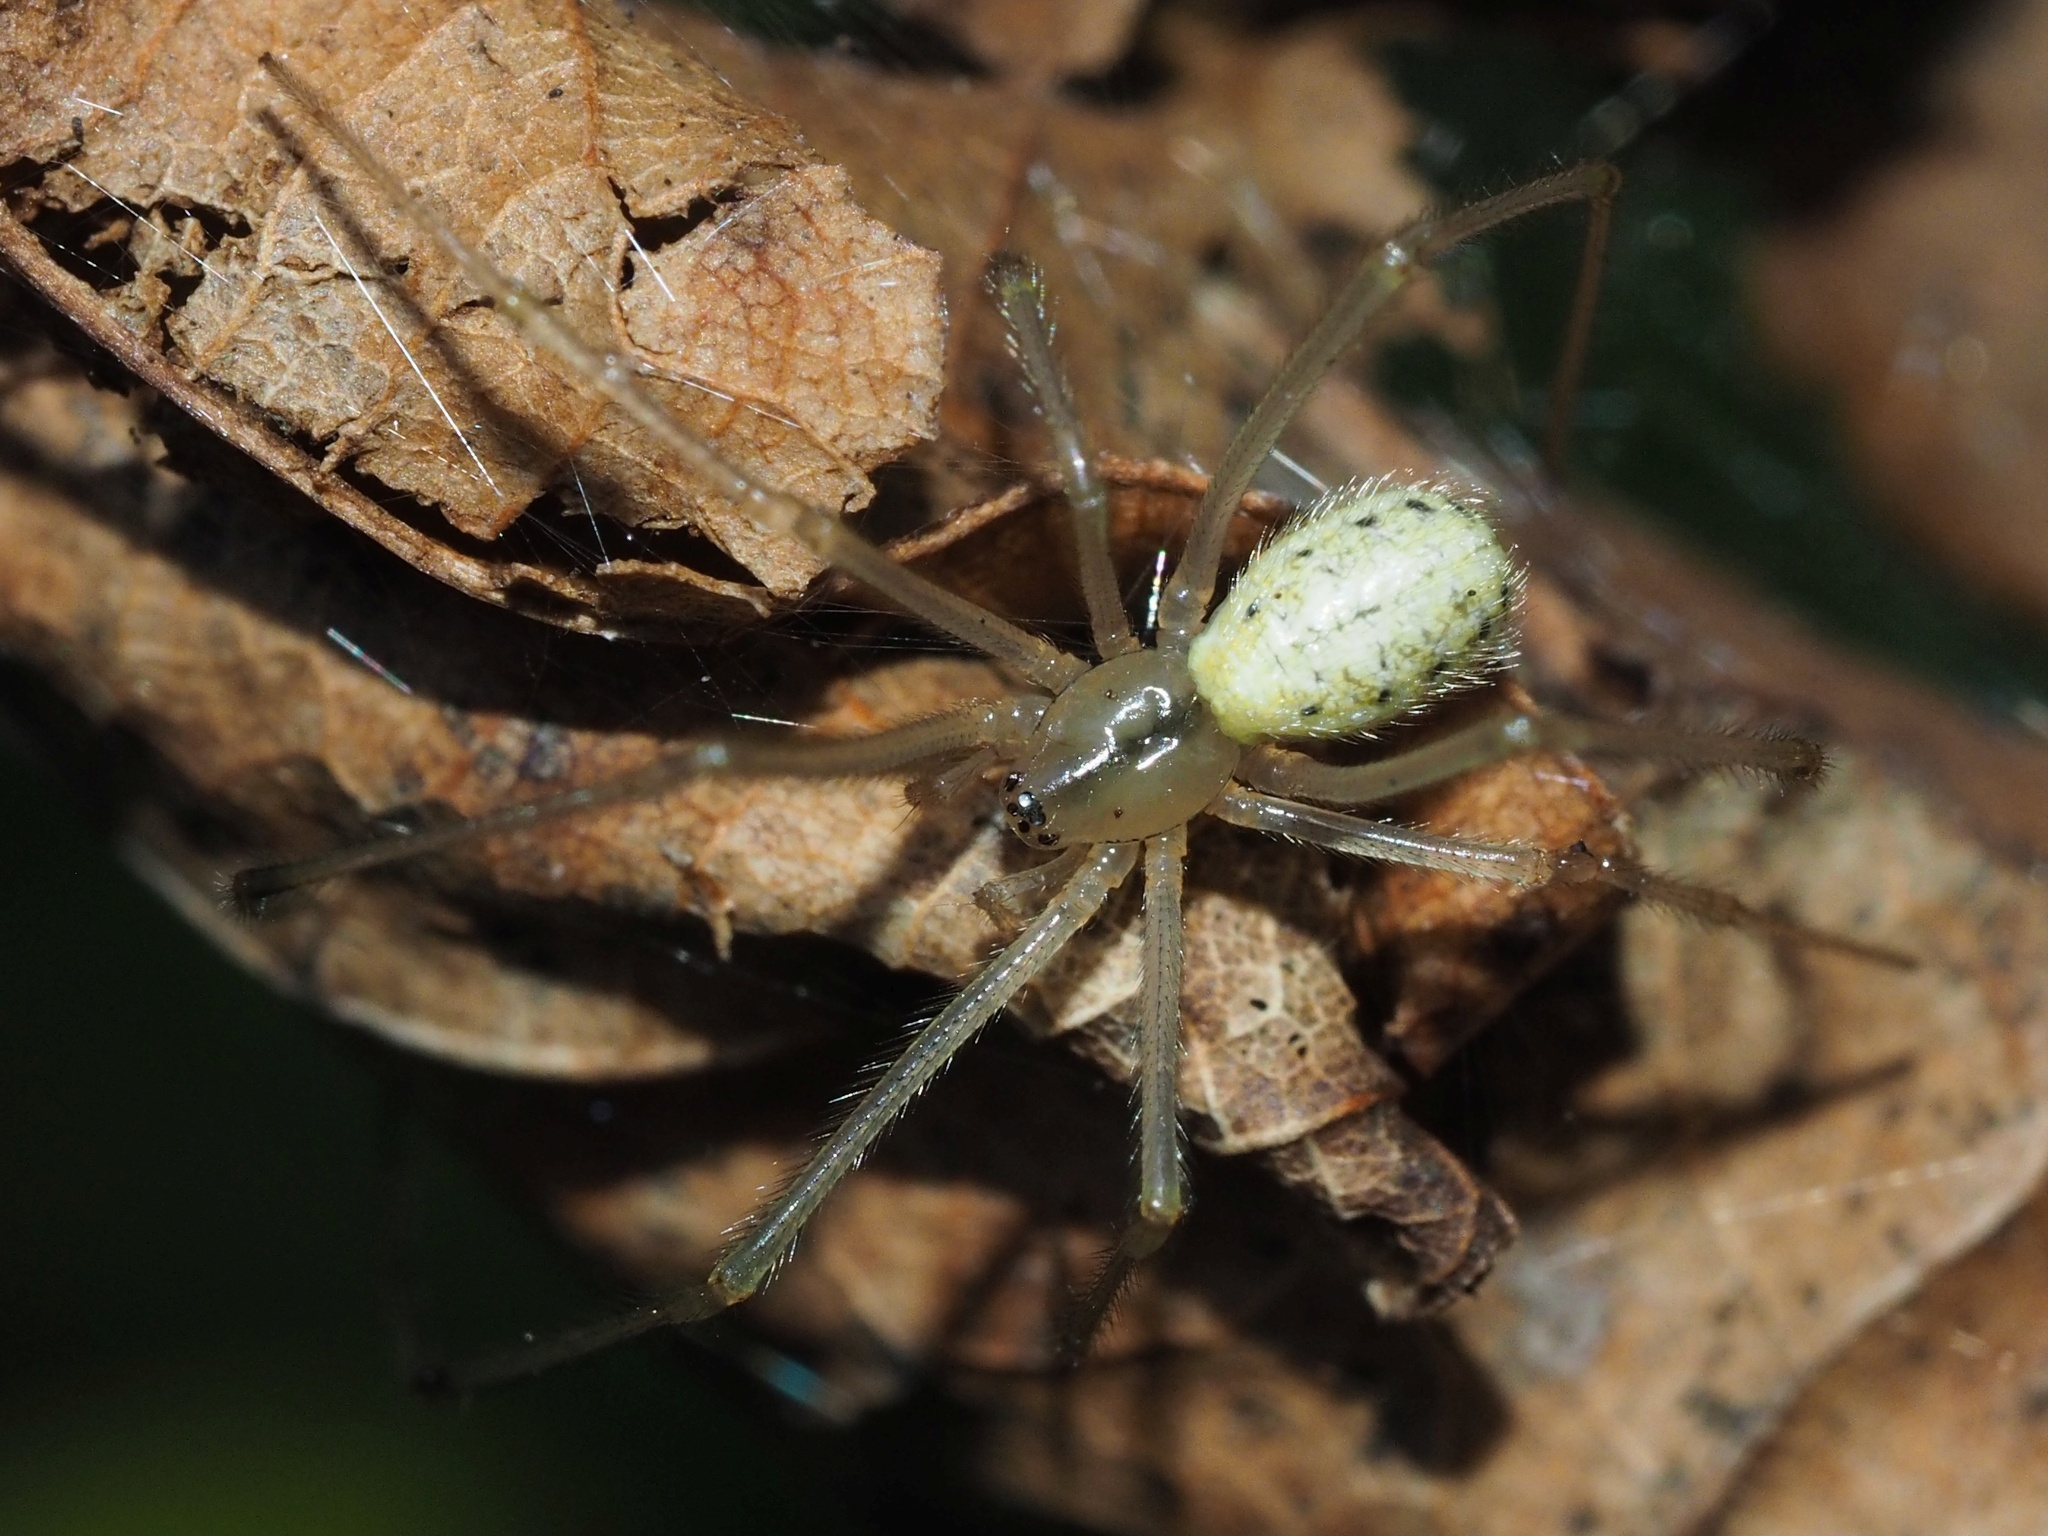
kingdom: Animalia
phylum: Arthropoda
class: Arachnida
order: Araneae
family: Theridiidae
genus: Enoplognatha
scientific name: Enoplognatha ovata
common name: Common candy-striped spider
